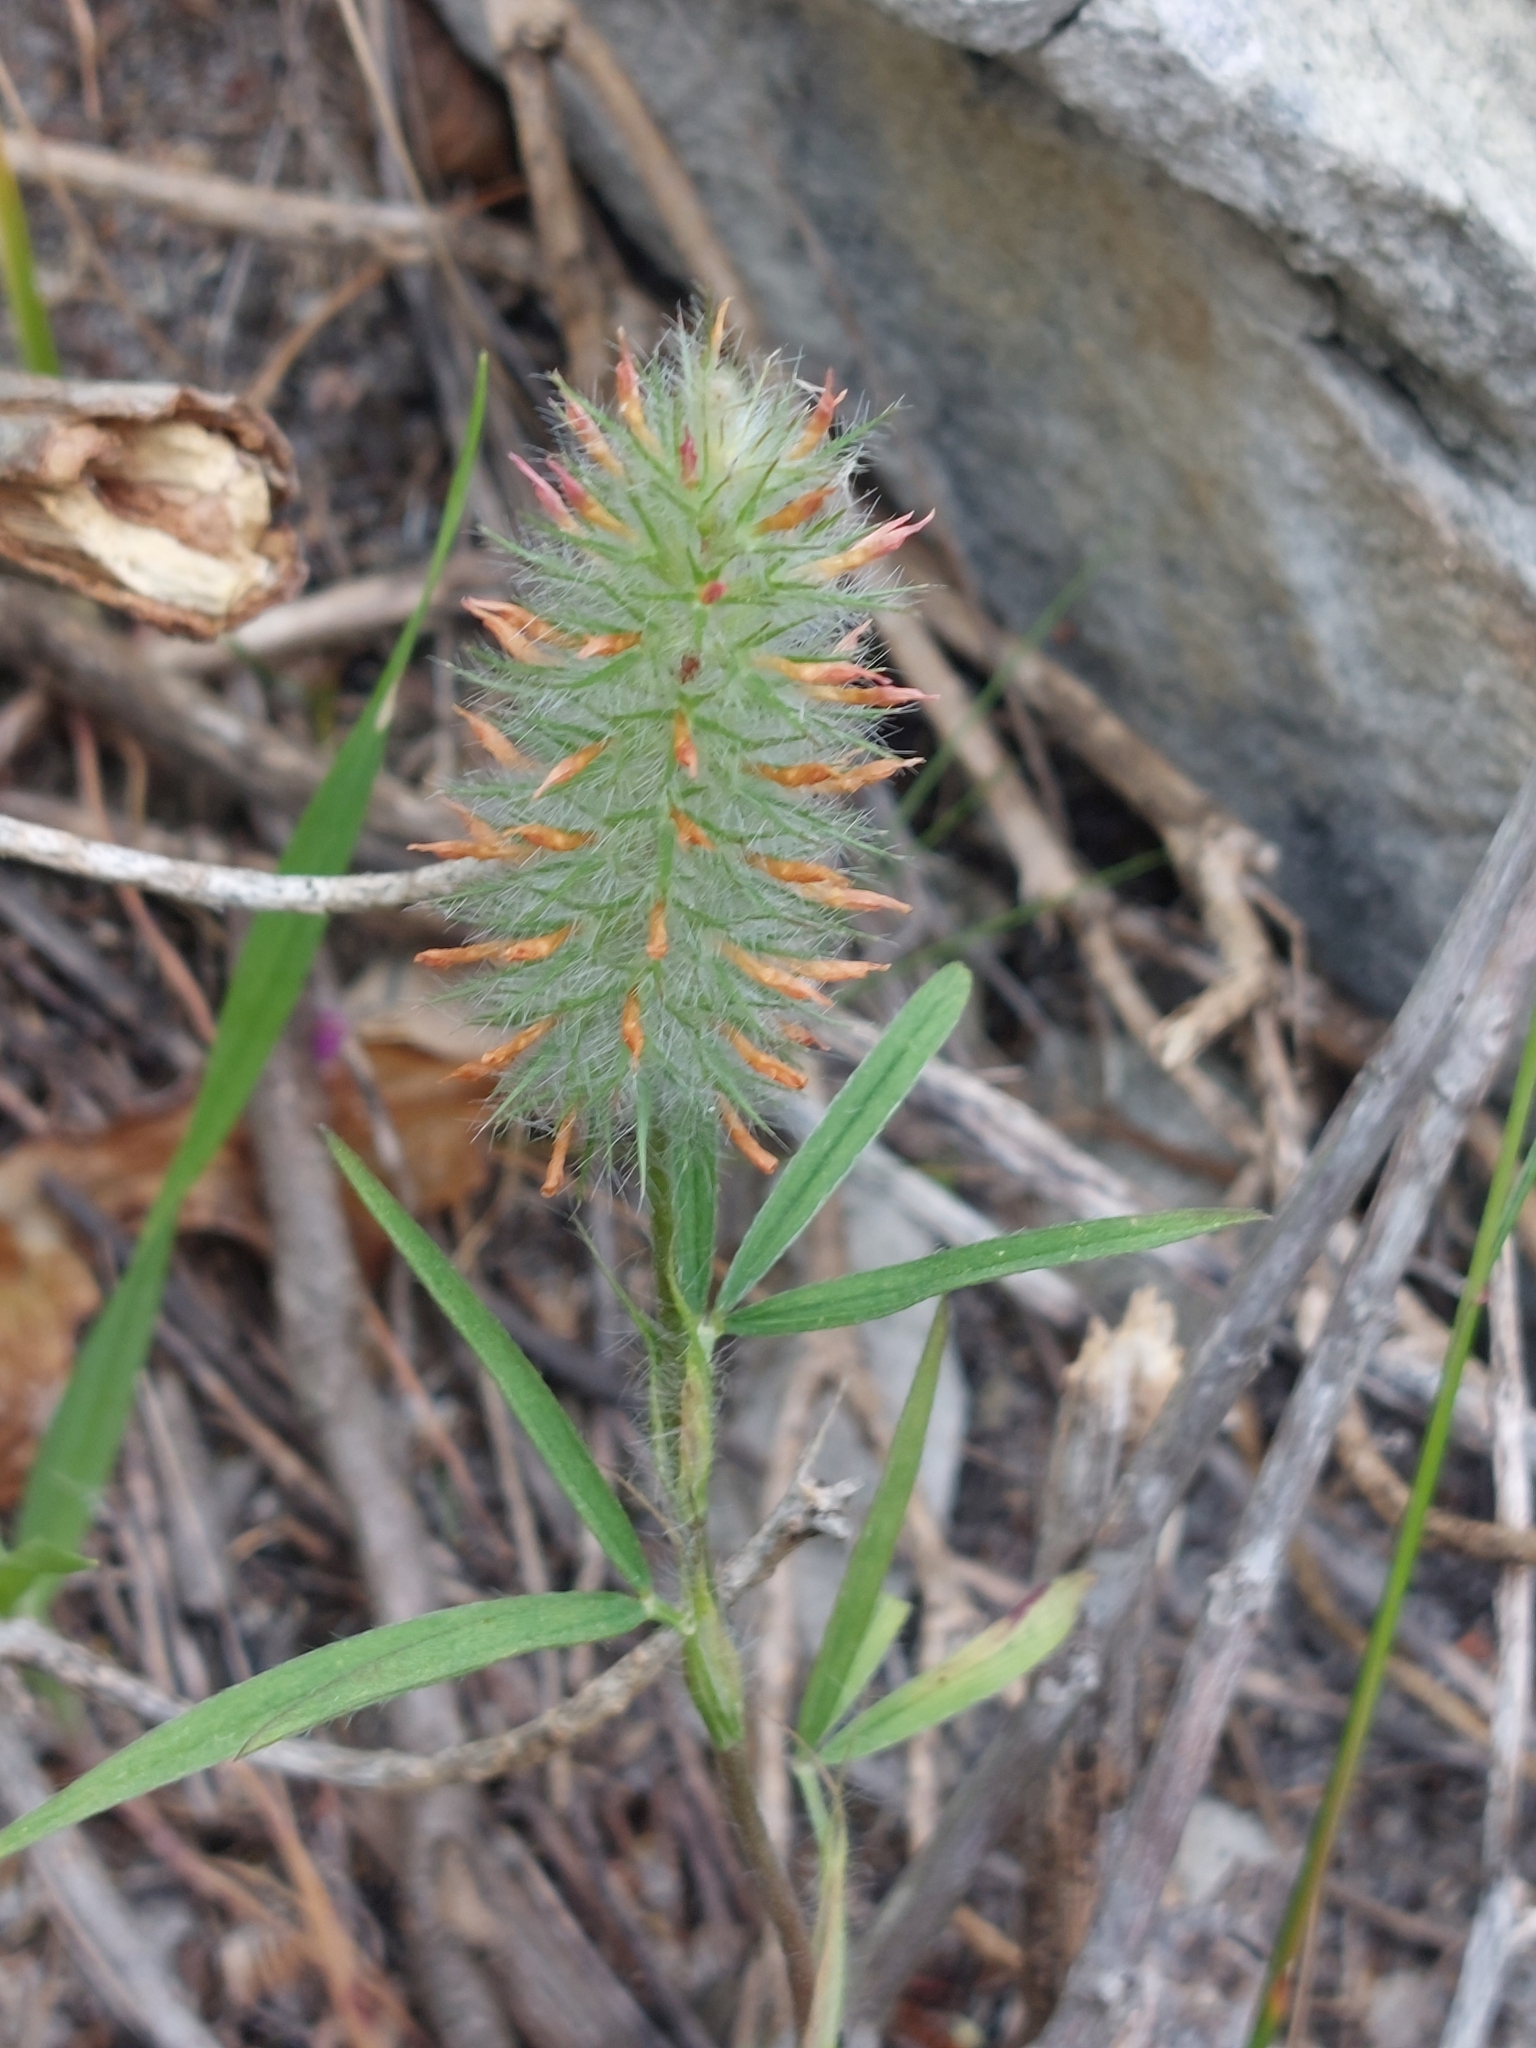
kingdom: Plantae
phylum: Tracheophyta
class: Magnoliopsida
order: Fabales
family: Fabaceae
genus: Trifolium
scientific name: Trifolium angustifolium
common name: Narrow clover
